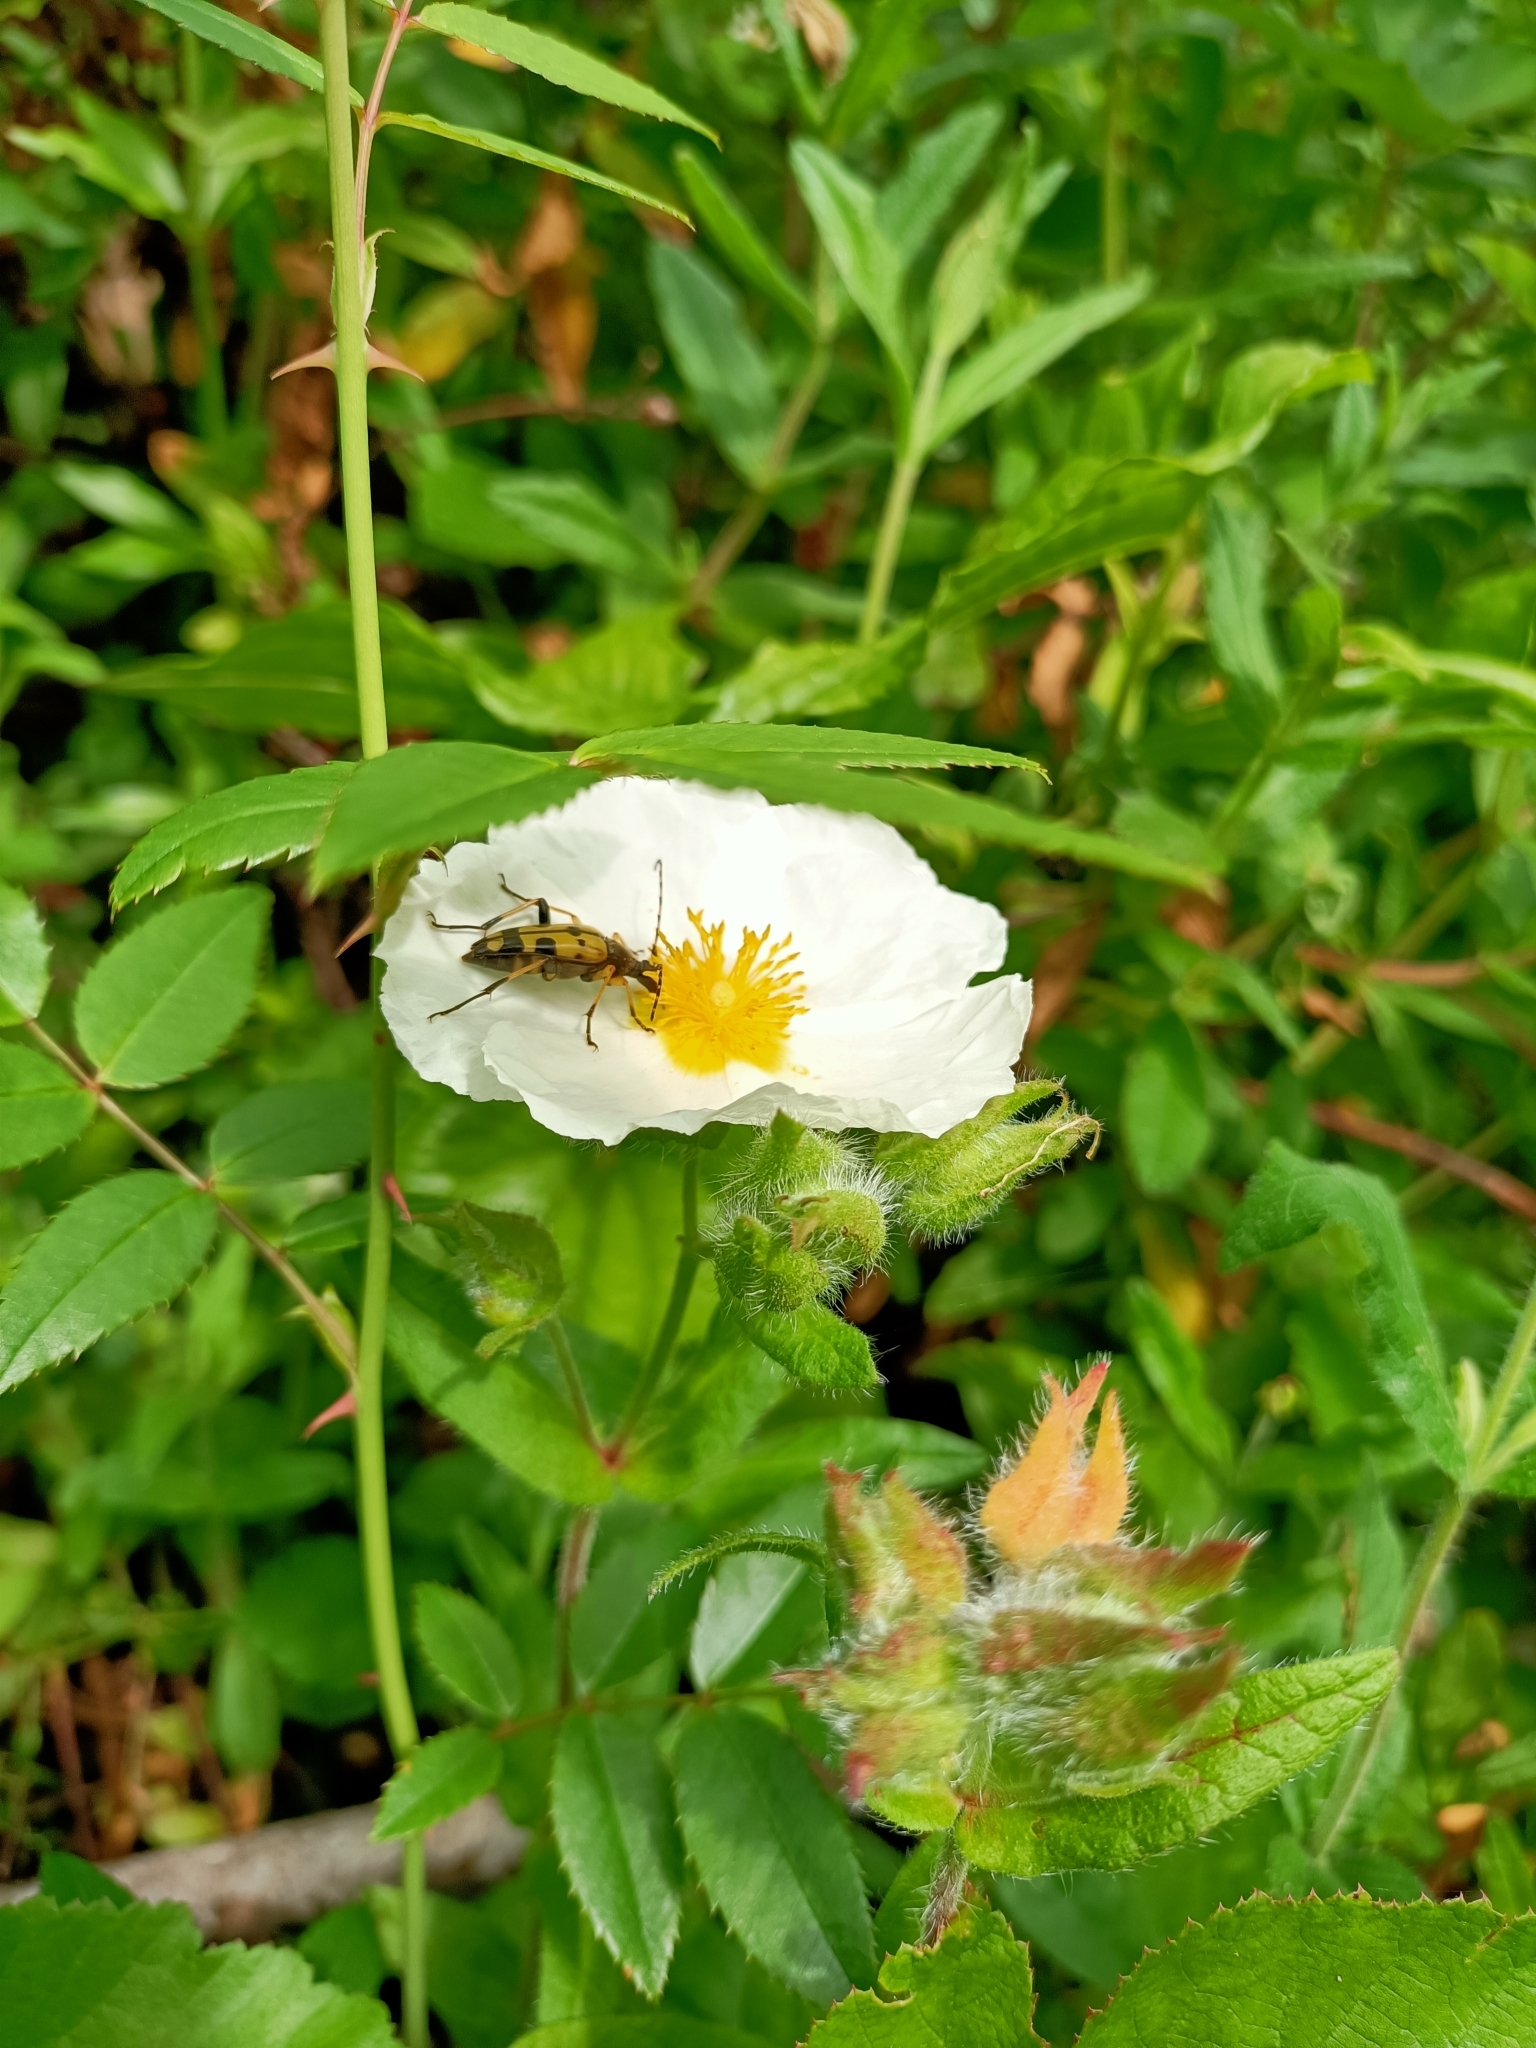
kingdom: Animalia
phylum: Arthropoda
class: Insecta
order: Coleoptera
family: Cerambycidae
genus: Rutpela
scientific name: Rutpela maculata
